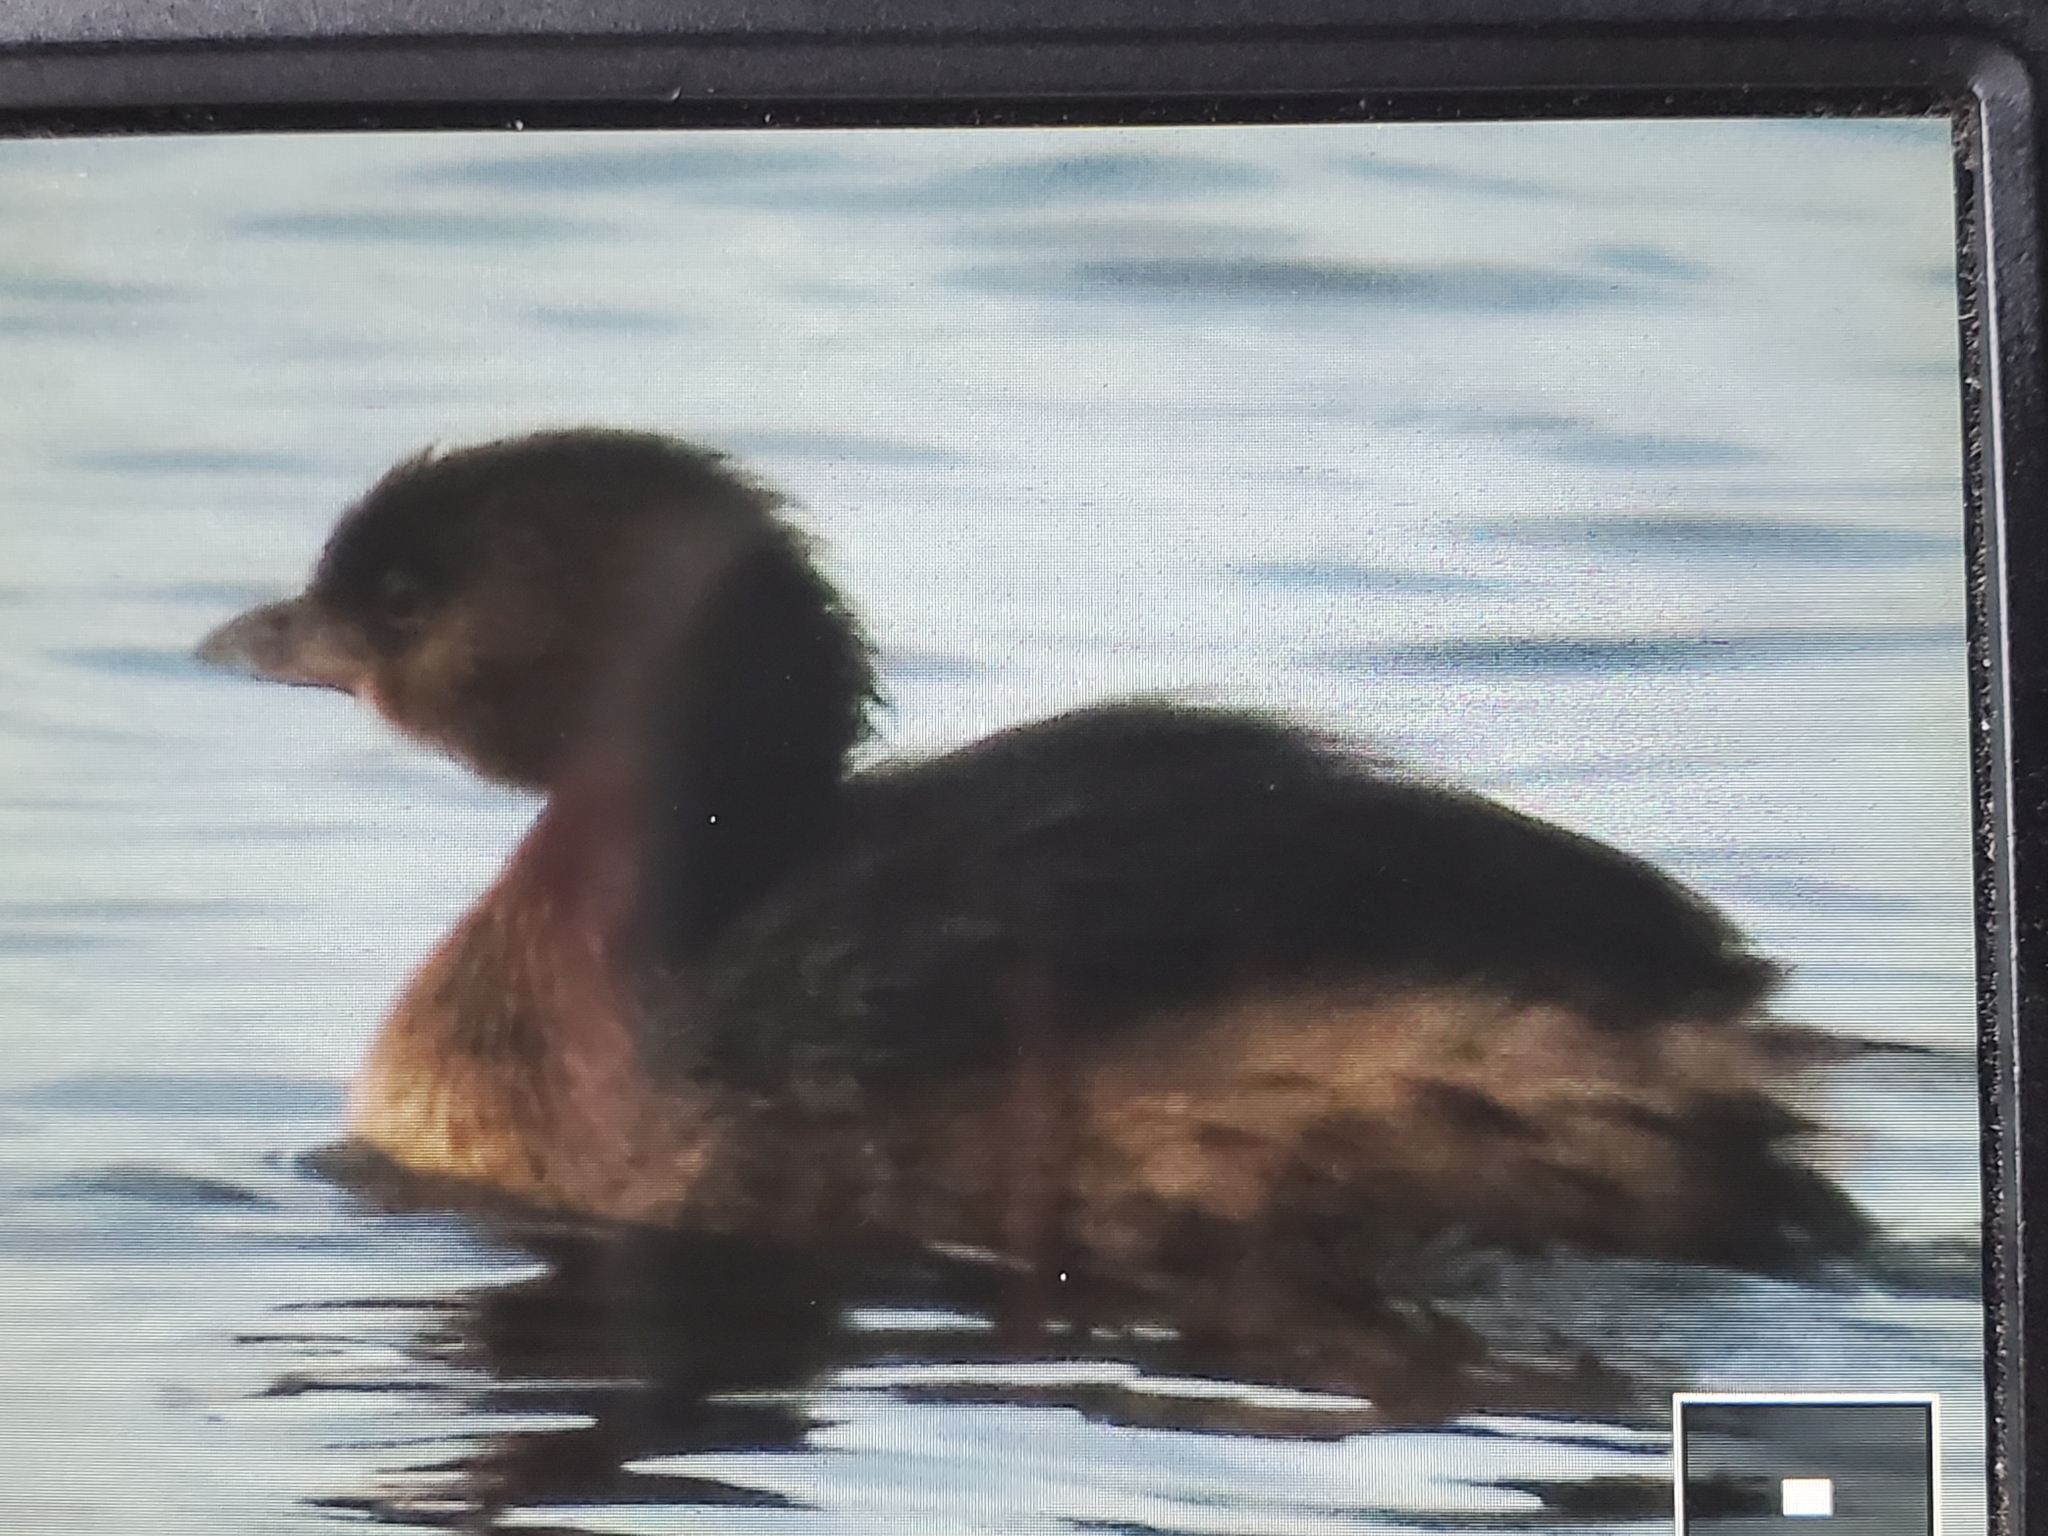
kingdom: Animalia
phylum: Chordata
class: Aves
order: Podicipediformes
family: Podicipedidae
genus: Podilymbus
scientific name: Podilymbus podiceps
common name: Pied-billed grebe
